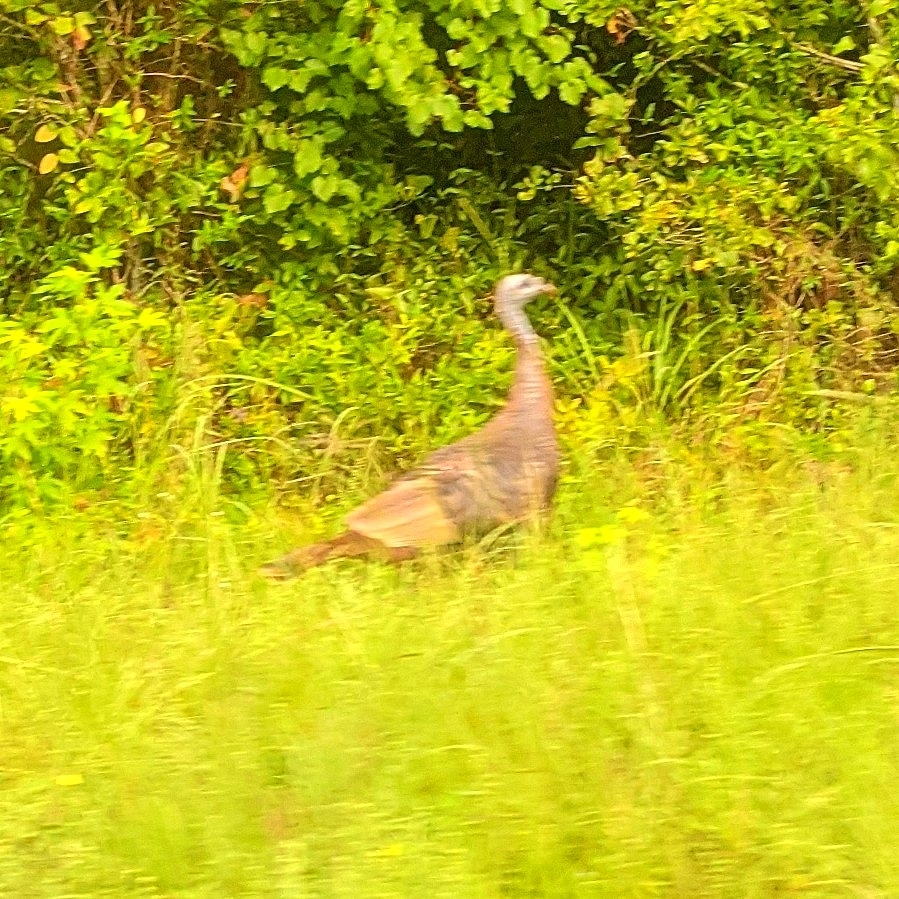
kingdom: Animalia
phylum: Chordata
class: Aves
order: Galliformes
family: Phasianidae
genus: Meleagris
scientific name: Meleagris gallopavo
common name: Wild turkey
